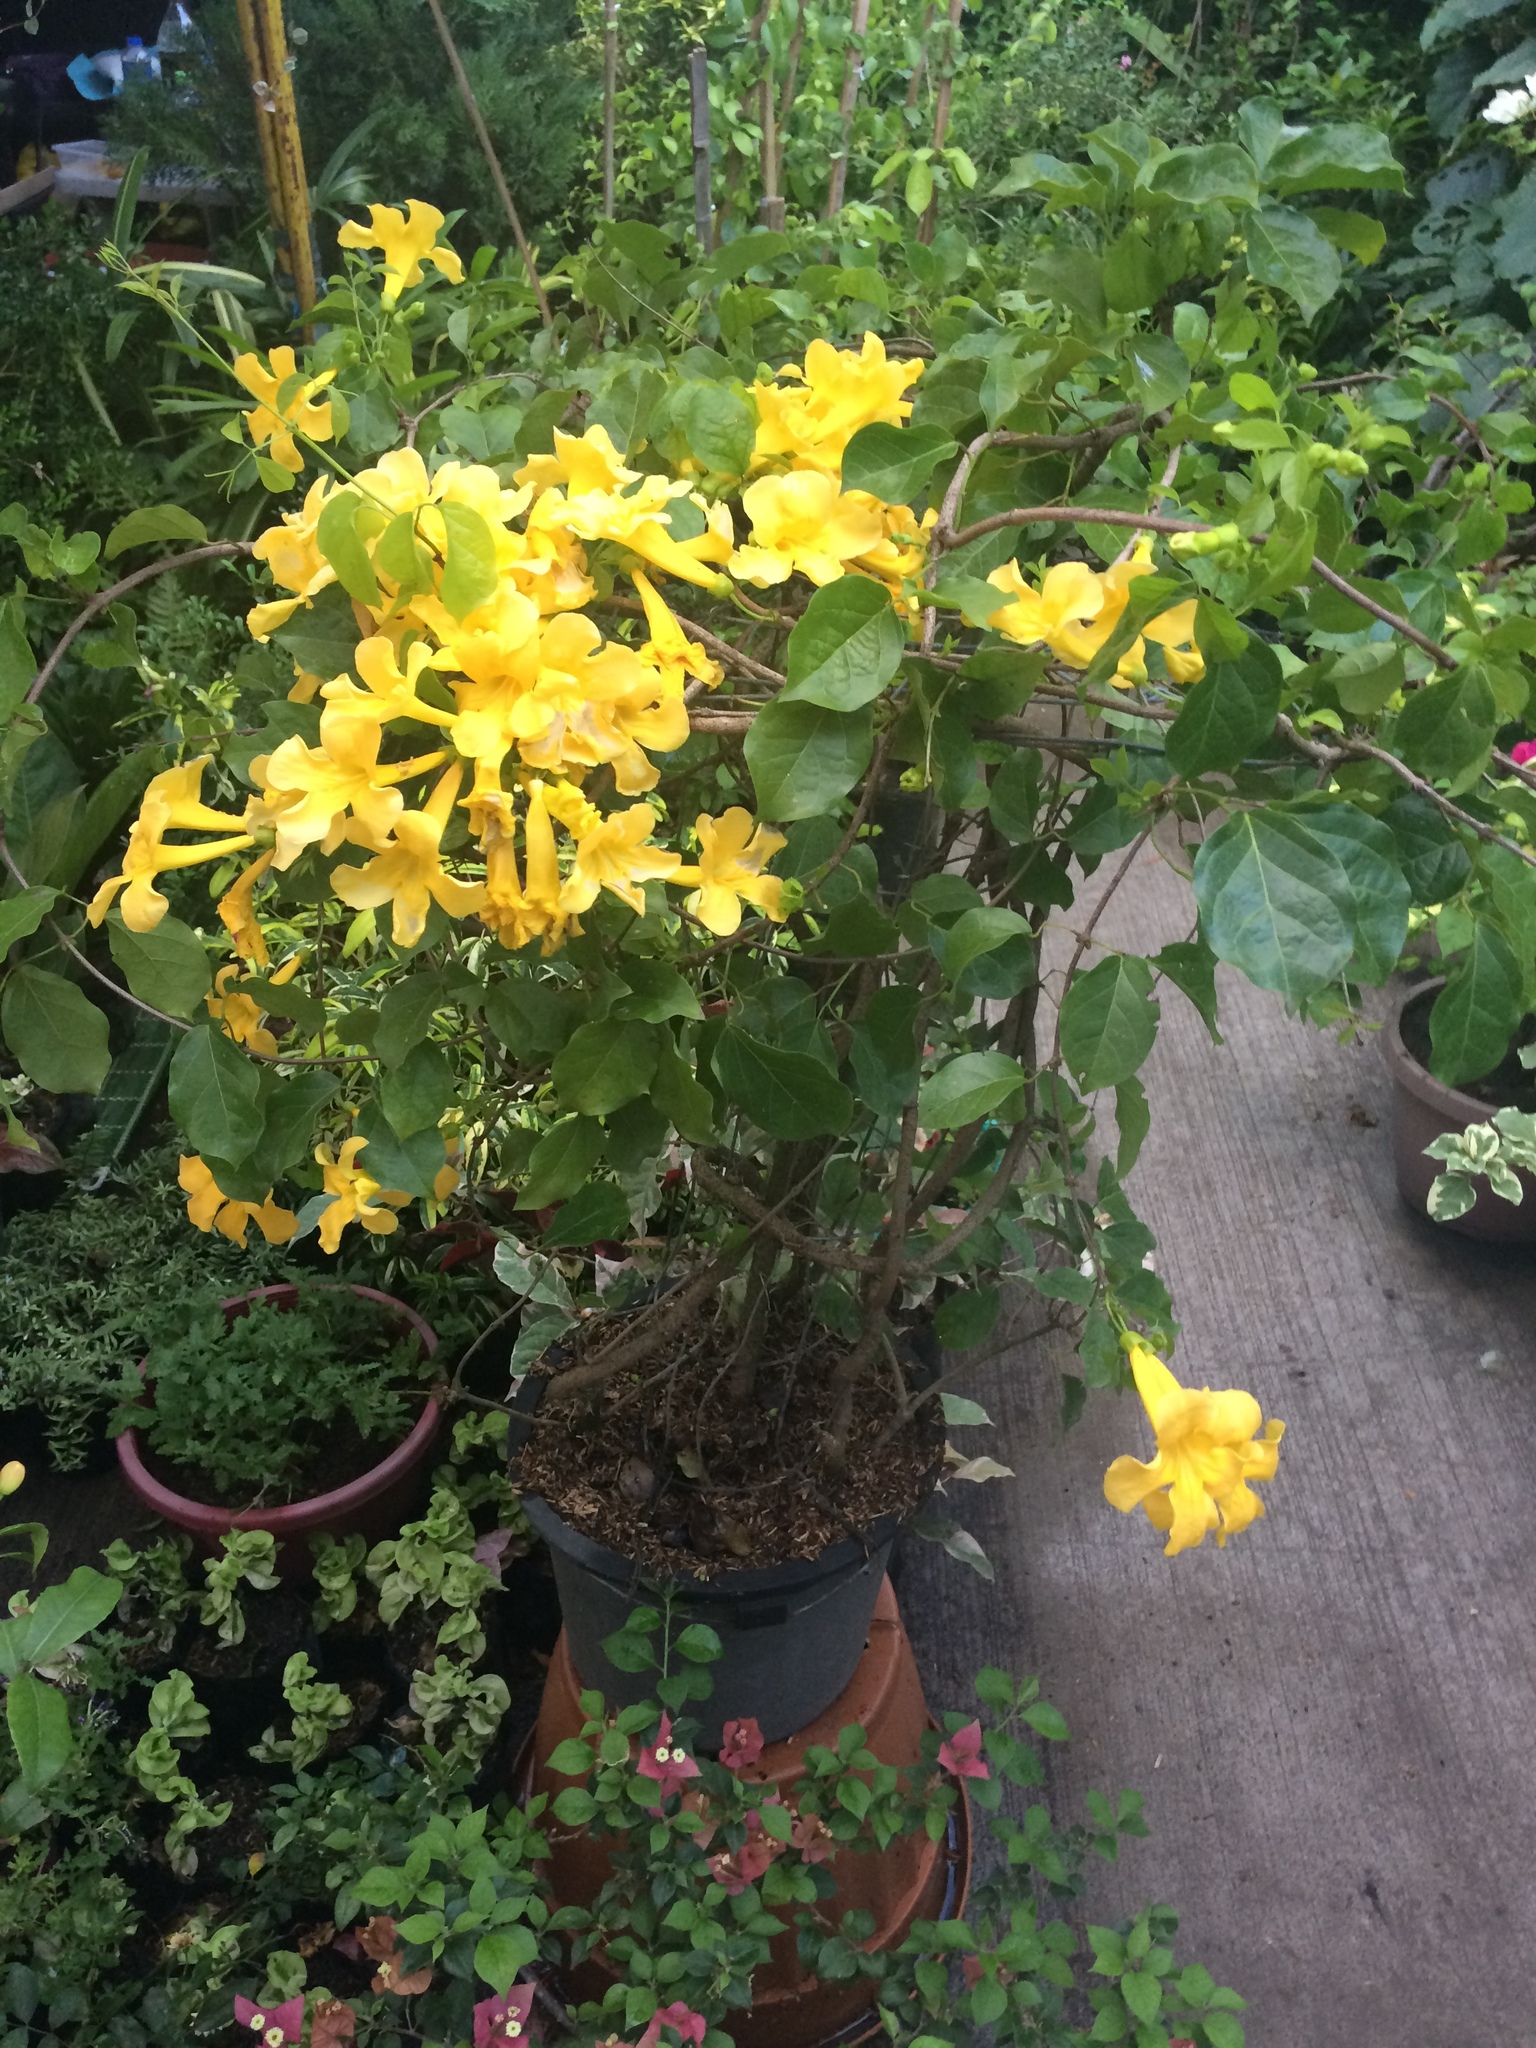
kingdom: Plantae
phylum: Tracheophyta
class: Magnoliopsida
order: Lamiales
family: Bignoniaceae
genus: Dolichandra
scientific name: Dolichandra unguis-cati
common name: Catclaw vine
